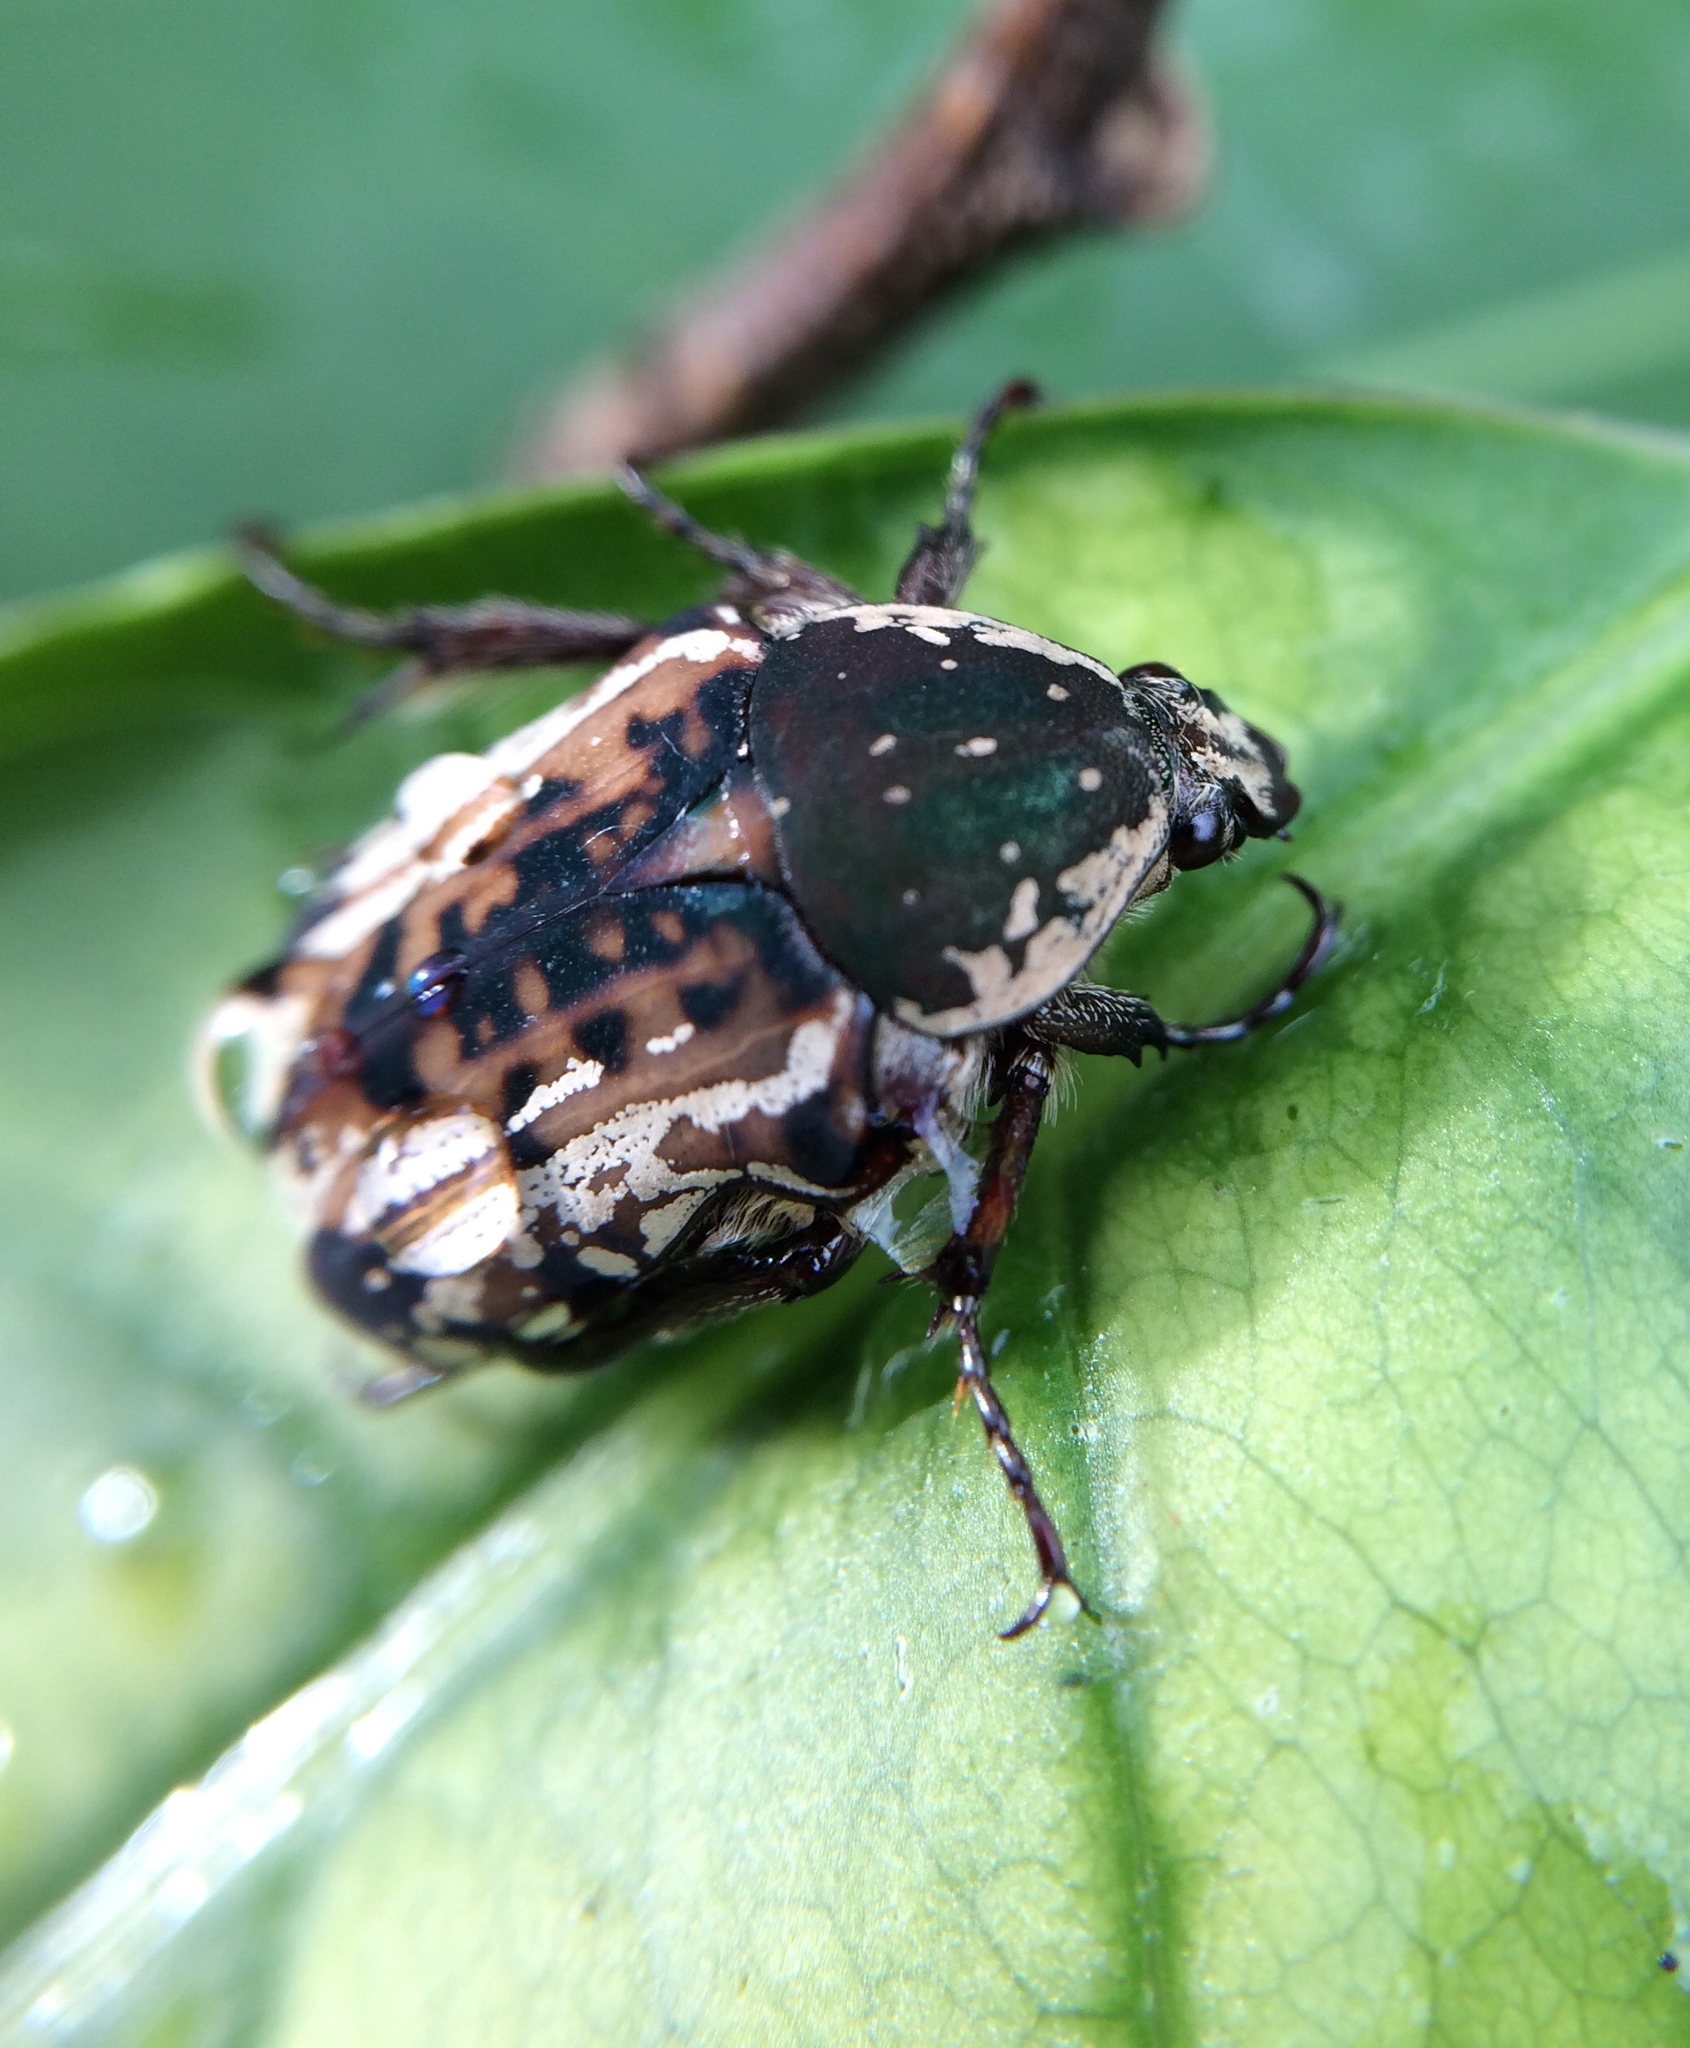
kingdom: Animalia
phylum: Arthropoda
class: Insecta
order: Coleoptera
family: Scarabaeidae
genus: Elaphinis
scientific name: Elaphinis irrorata
